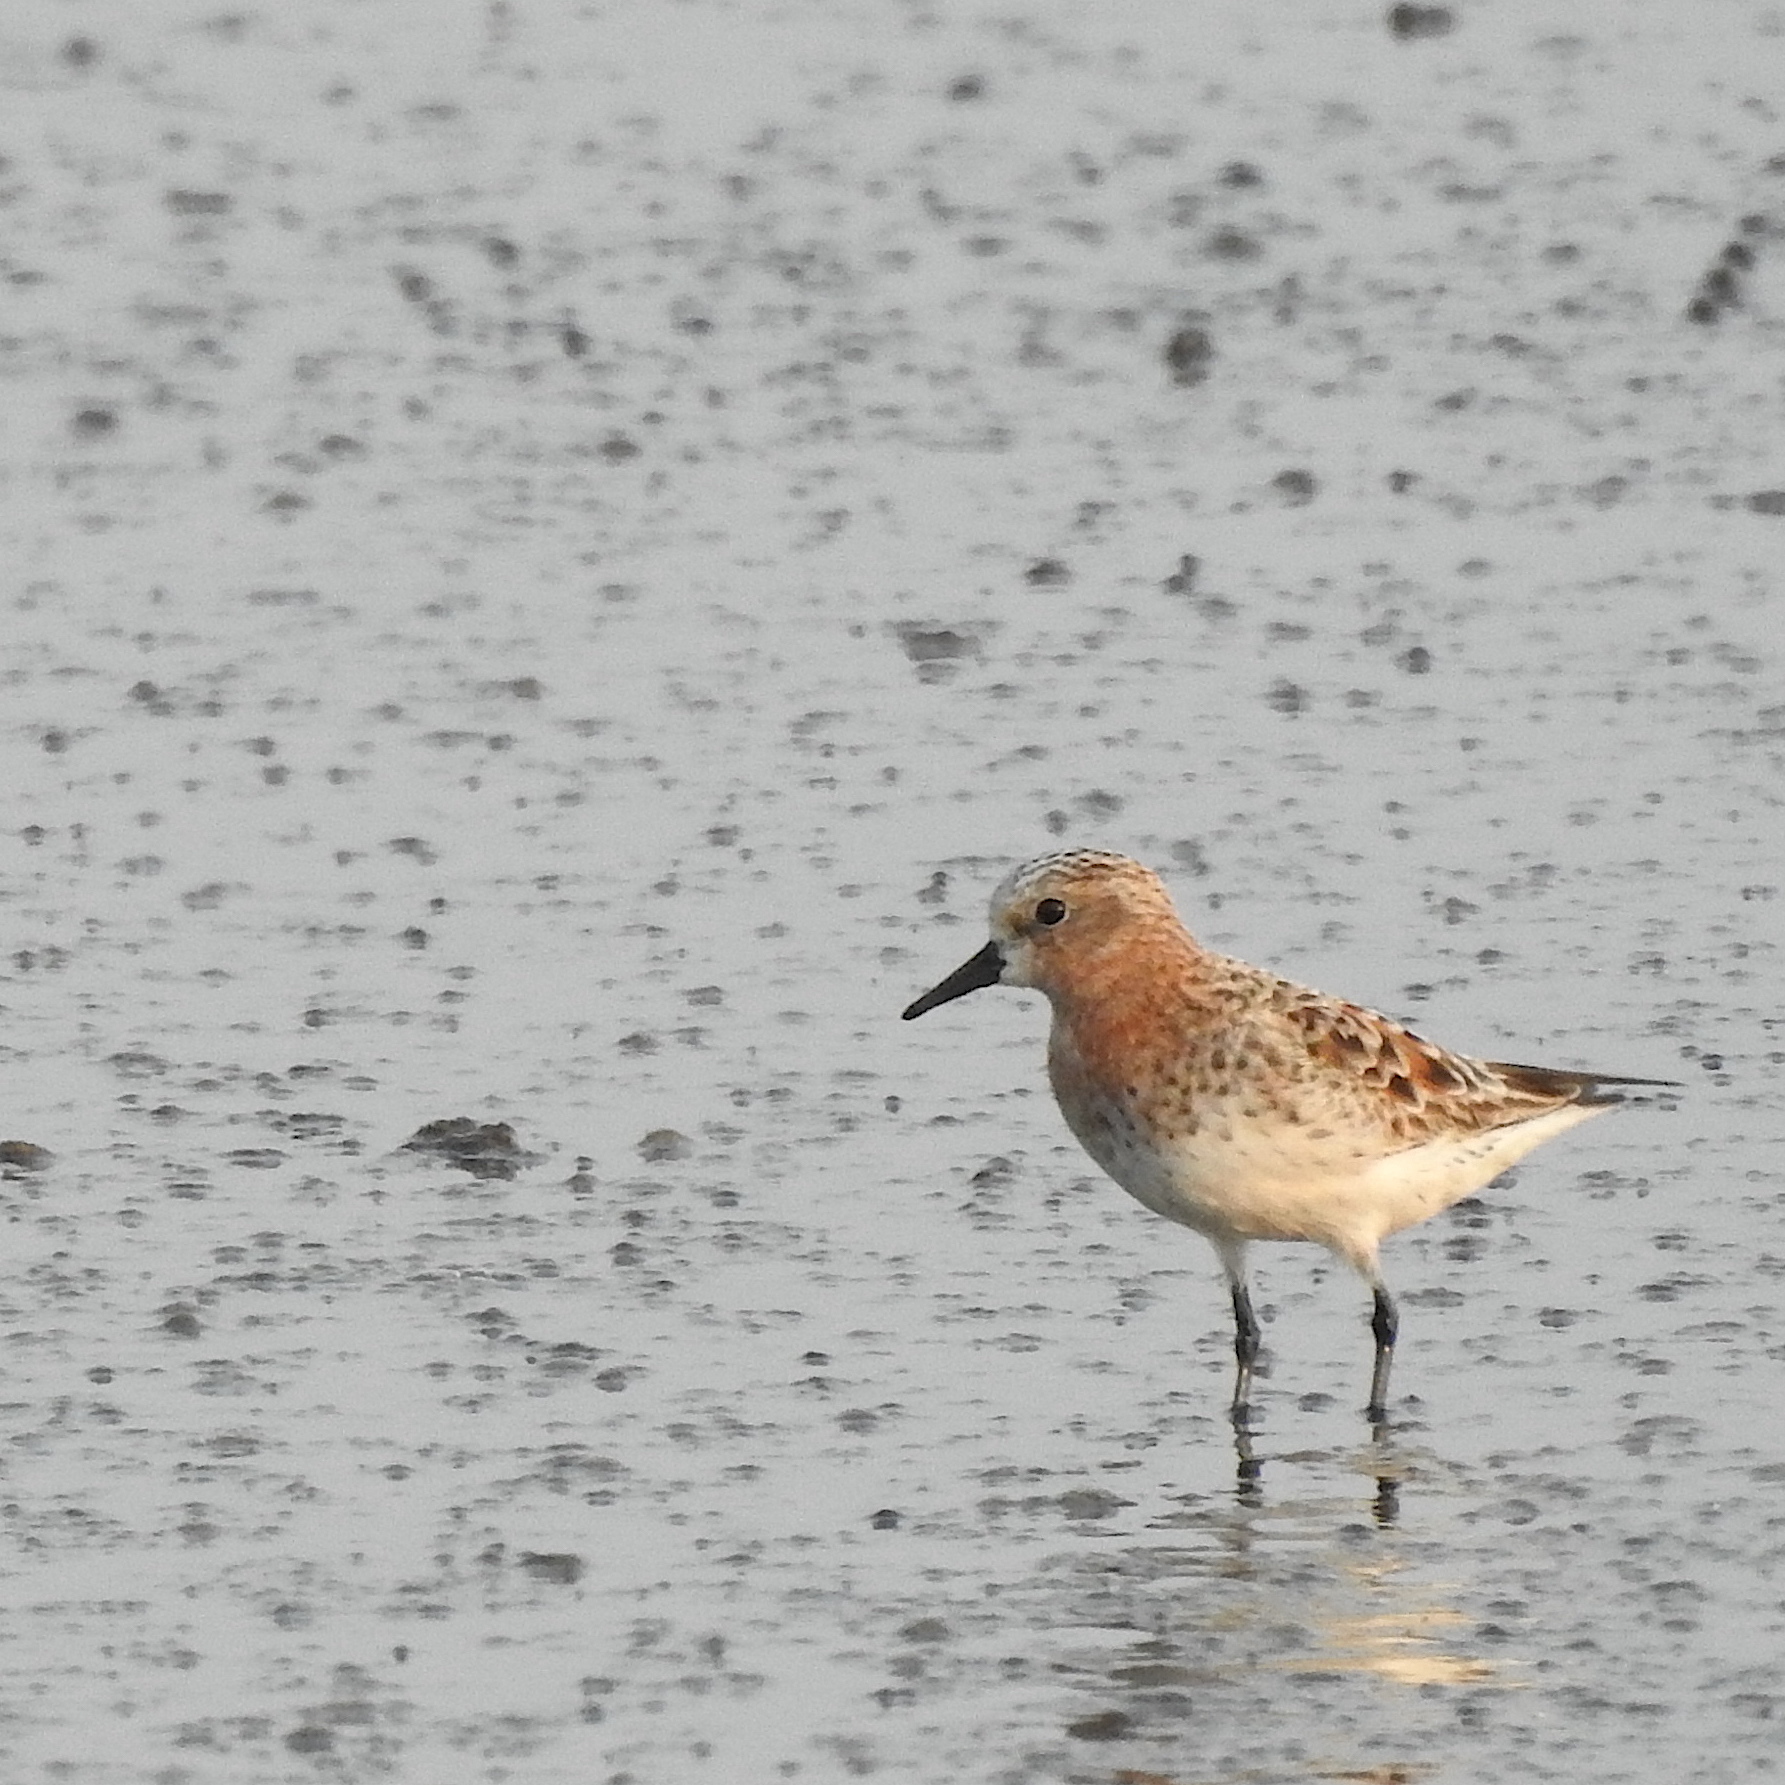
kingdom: Animalia
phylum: Chordata
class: Aves
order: Charadriiformes
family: Scolopacidae
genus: Calidris
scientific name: Calidris ruficollis
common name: Red-necked stint
